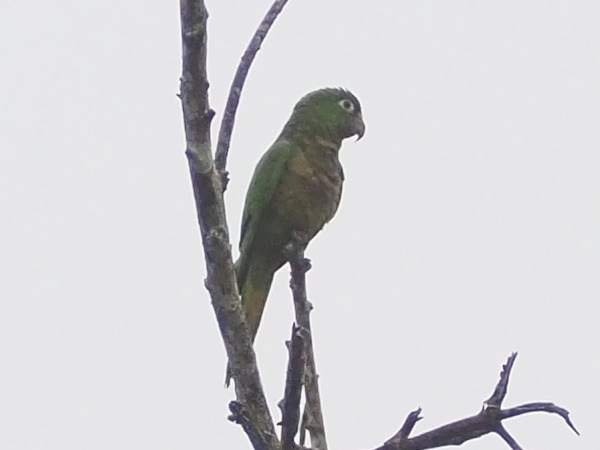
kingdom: Animalia
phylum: Chordata
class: Aves
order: Psittaciformes
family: Psittacidae
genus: Aratinga
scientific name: Aratinga nana
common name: Olive-throated parakeet
